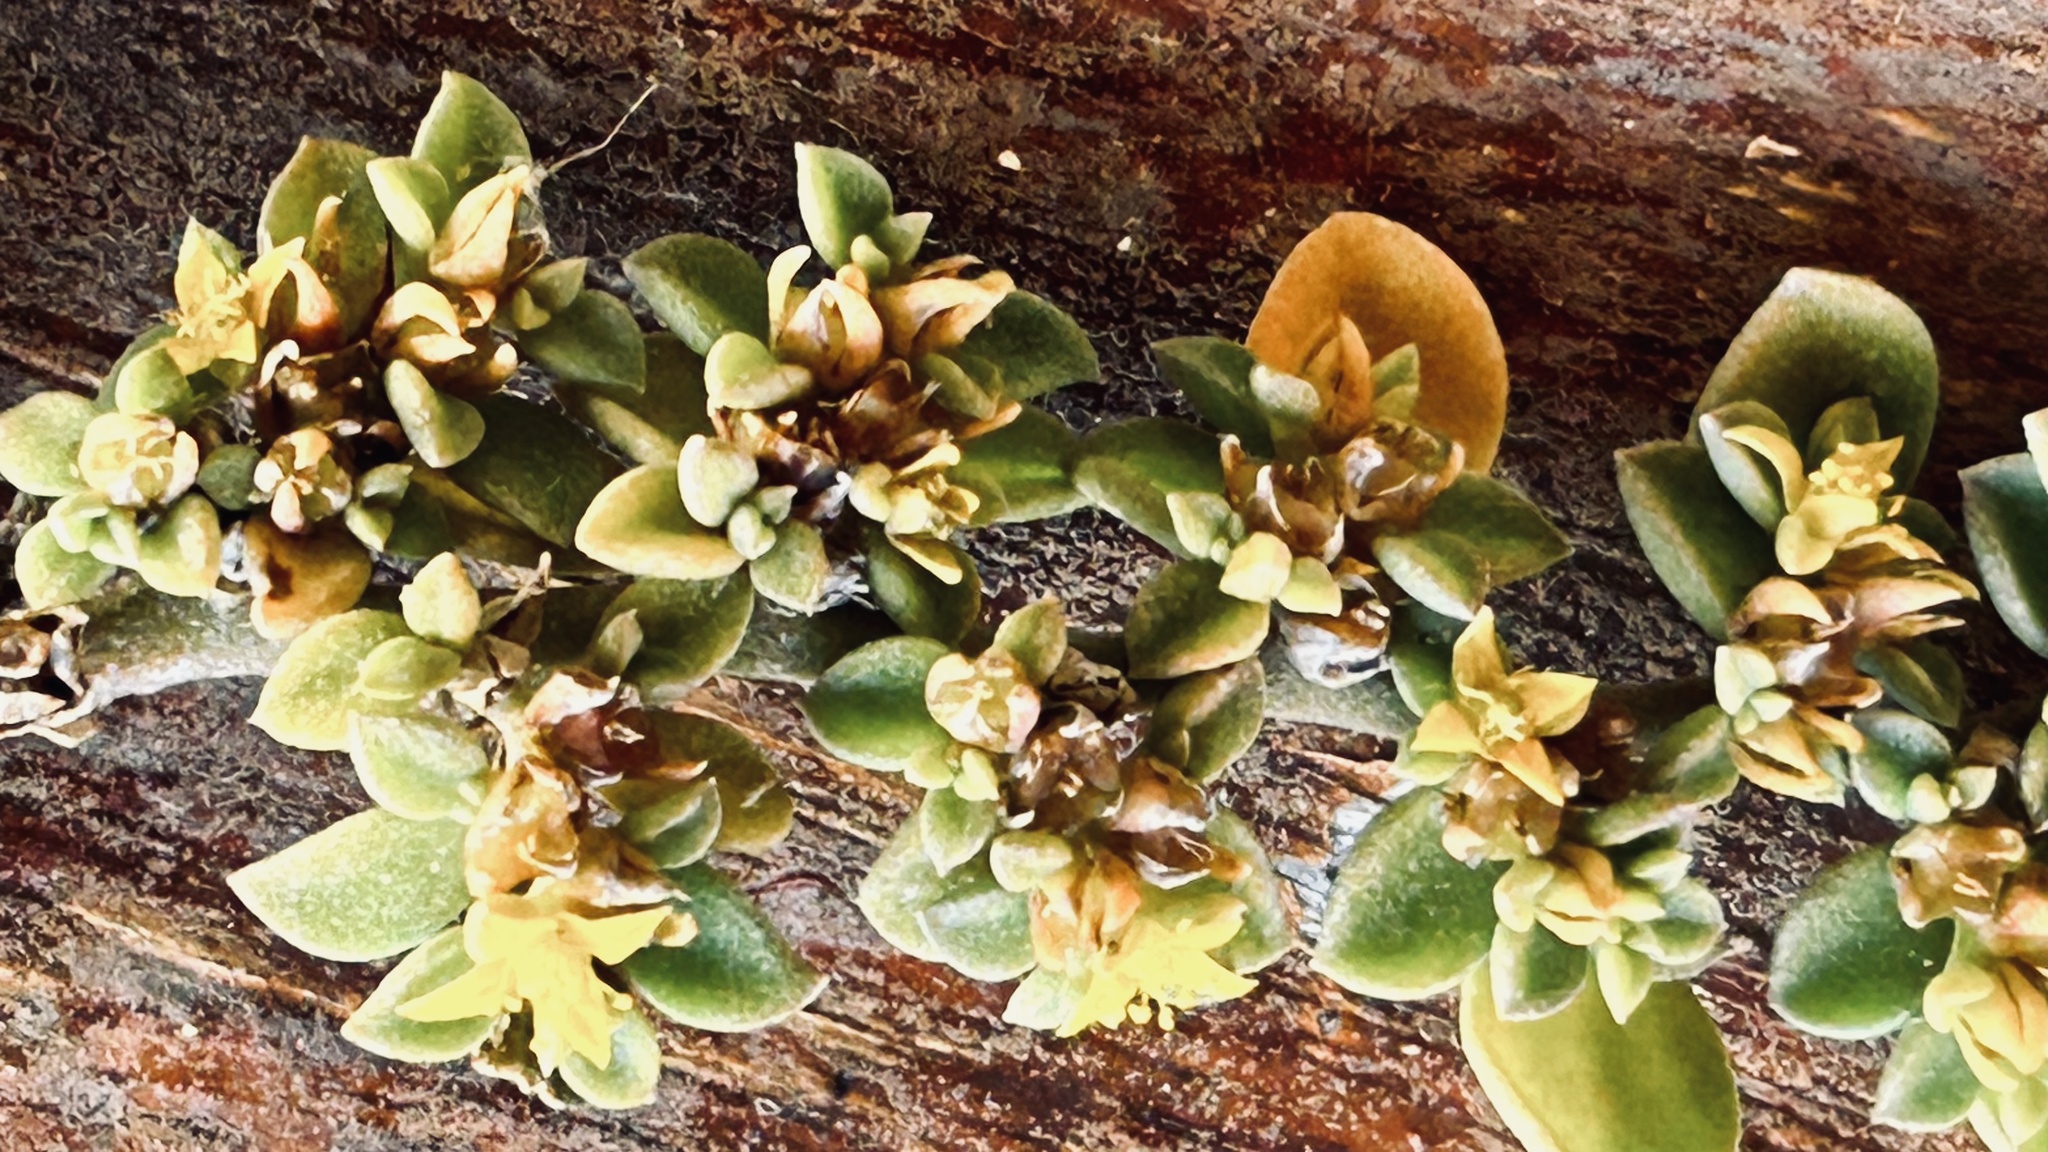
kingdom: Plantae
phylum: Tracheophyta
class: Magnoliopsida
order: Caryophyllales
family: Aizoaceae
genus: Aizoon
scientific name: Aizoon rigidum
